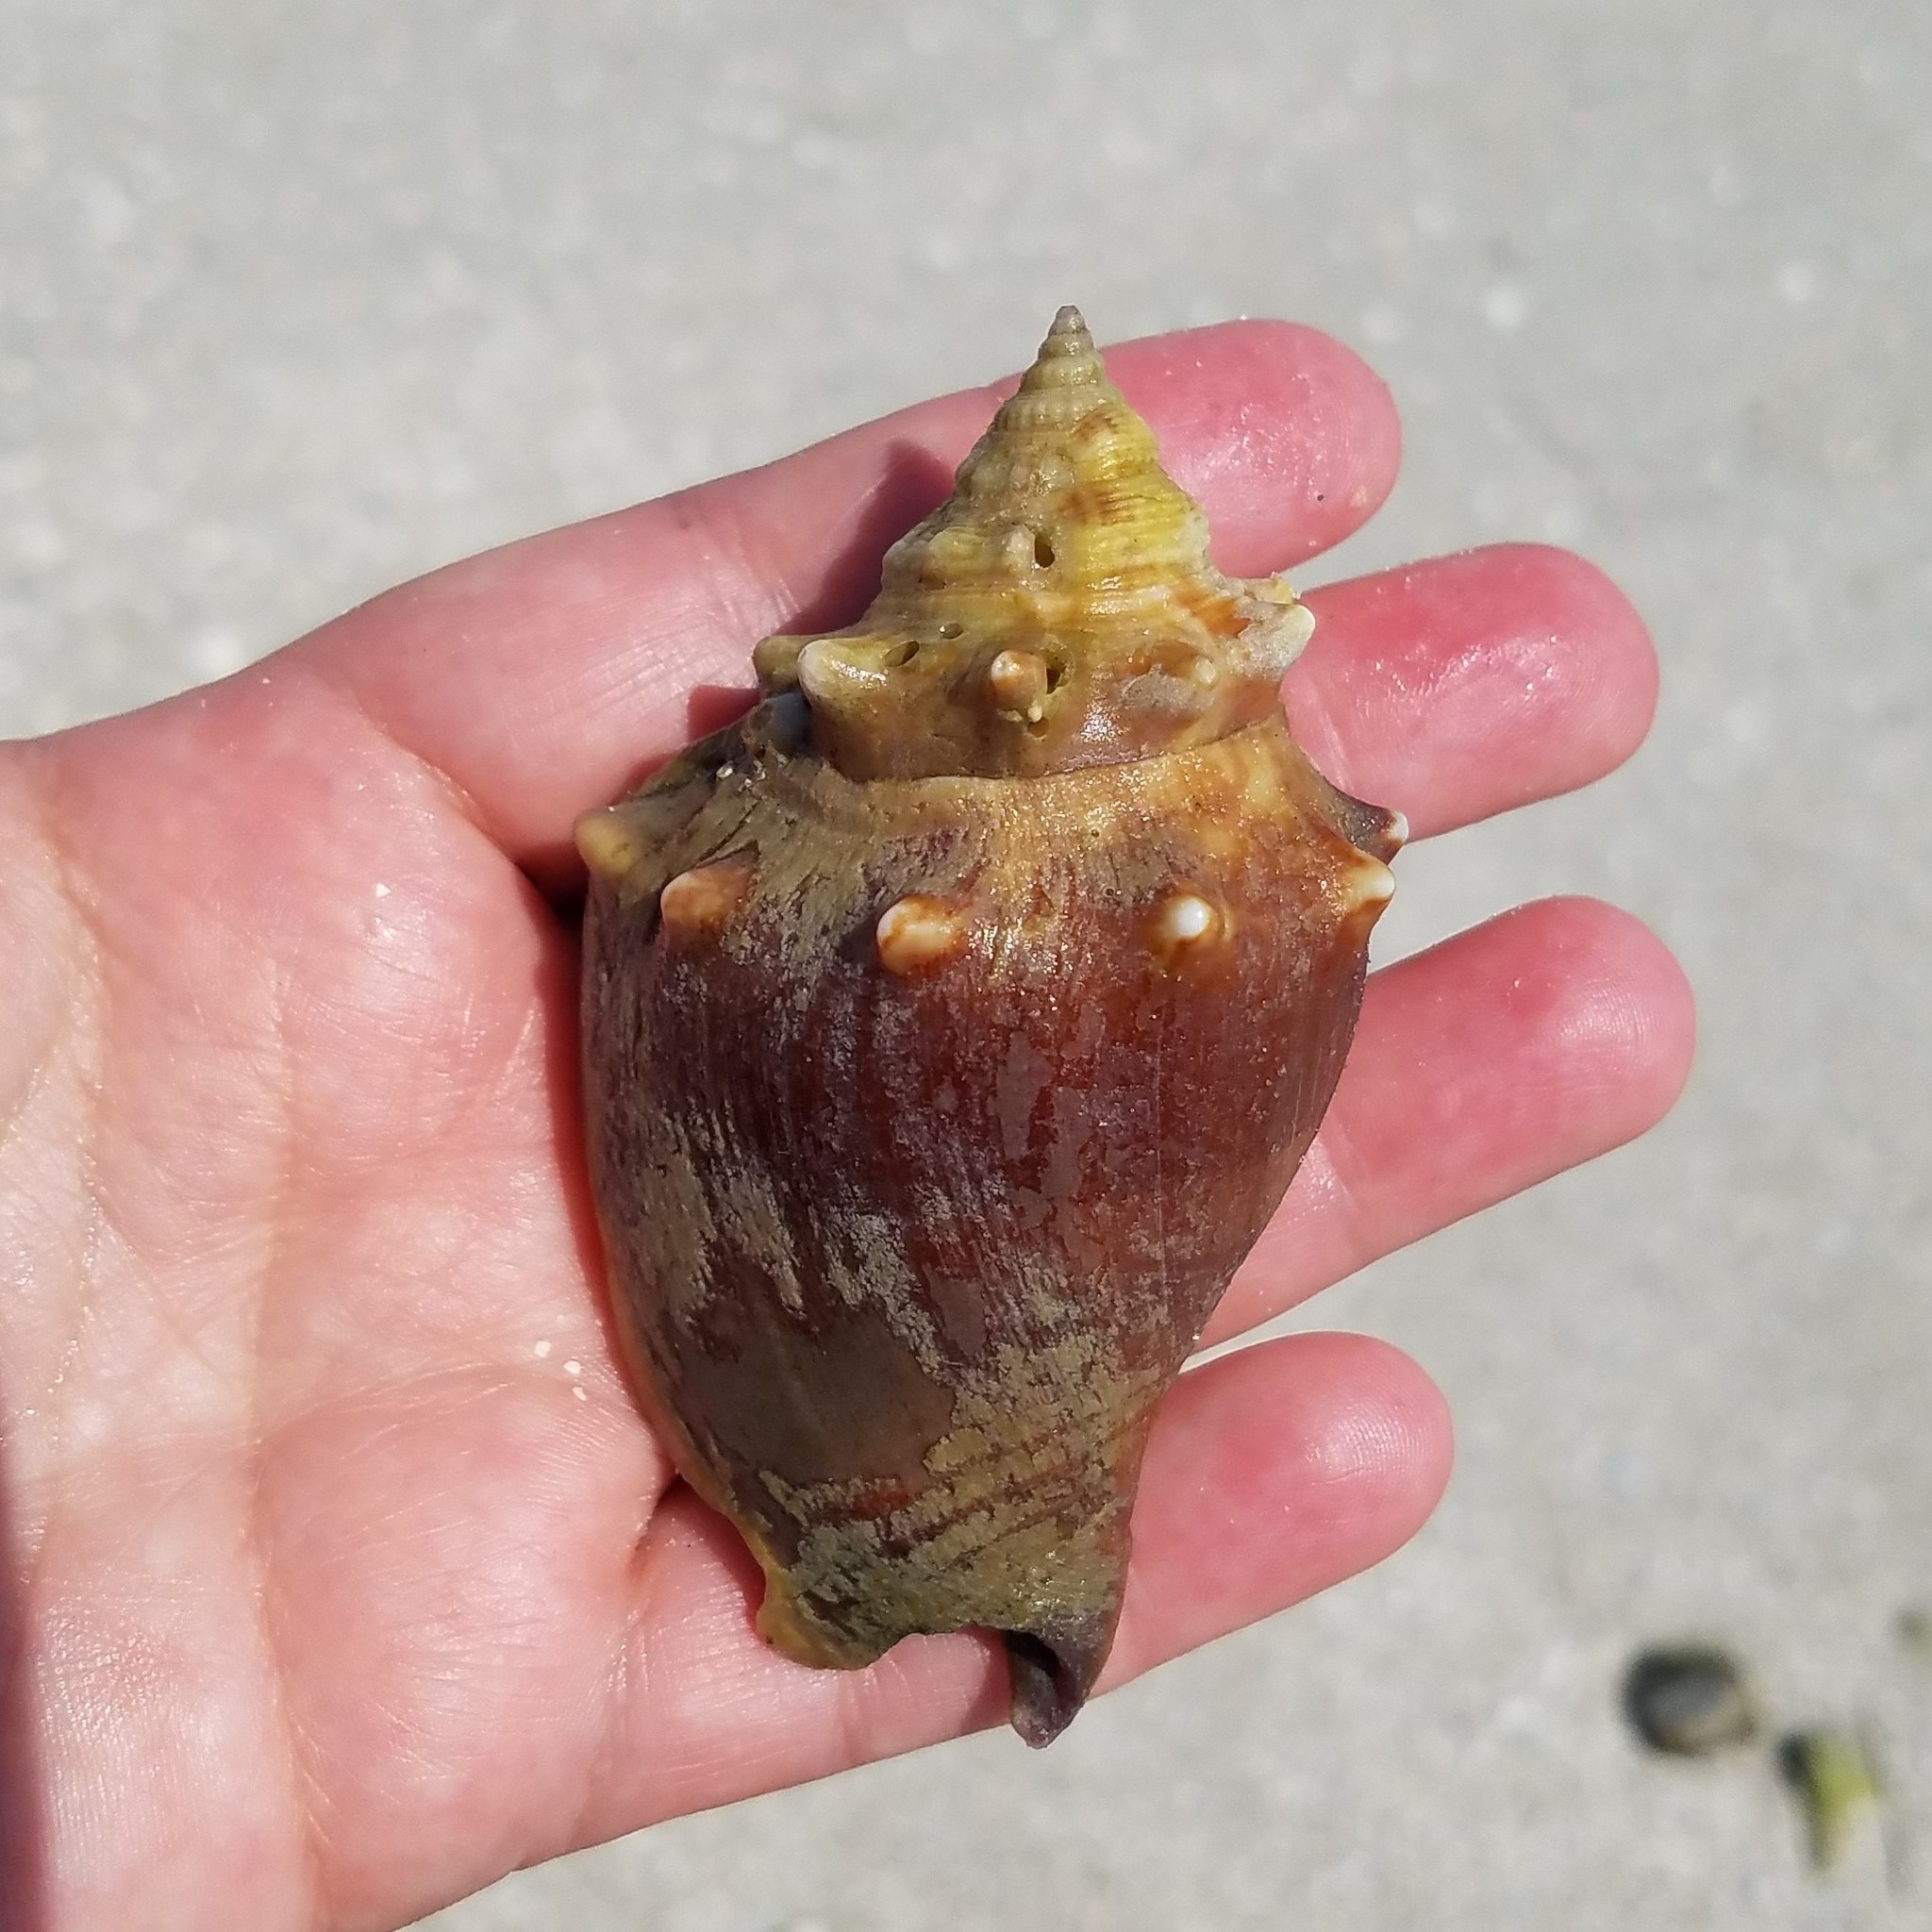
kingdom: Animalia
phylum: Mollusca
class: Gastropoda
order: Littorinimorpha
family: Strombidae
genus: Strombus
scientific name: Strombus alatus
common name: Florida fighting conch
